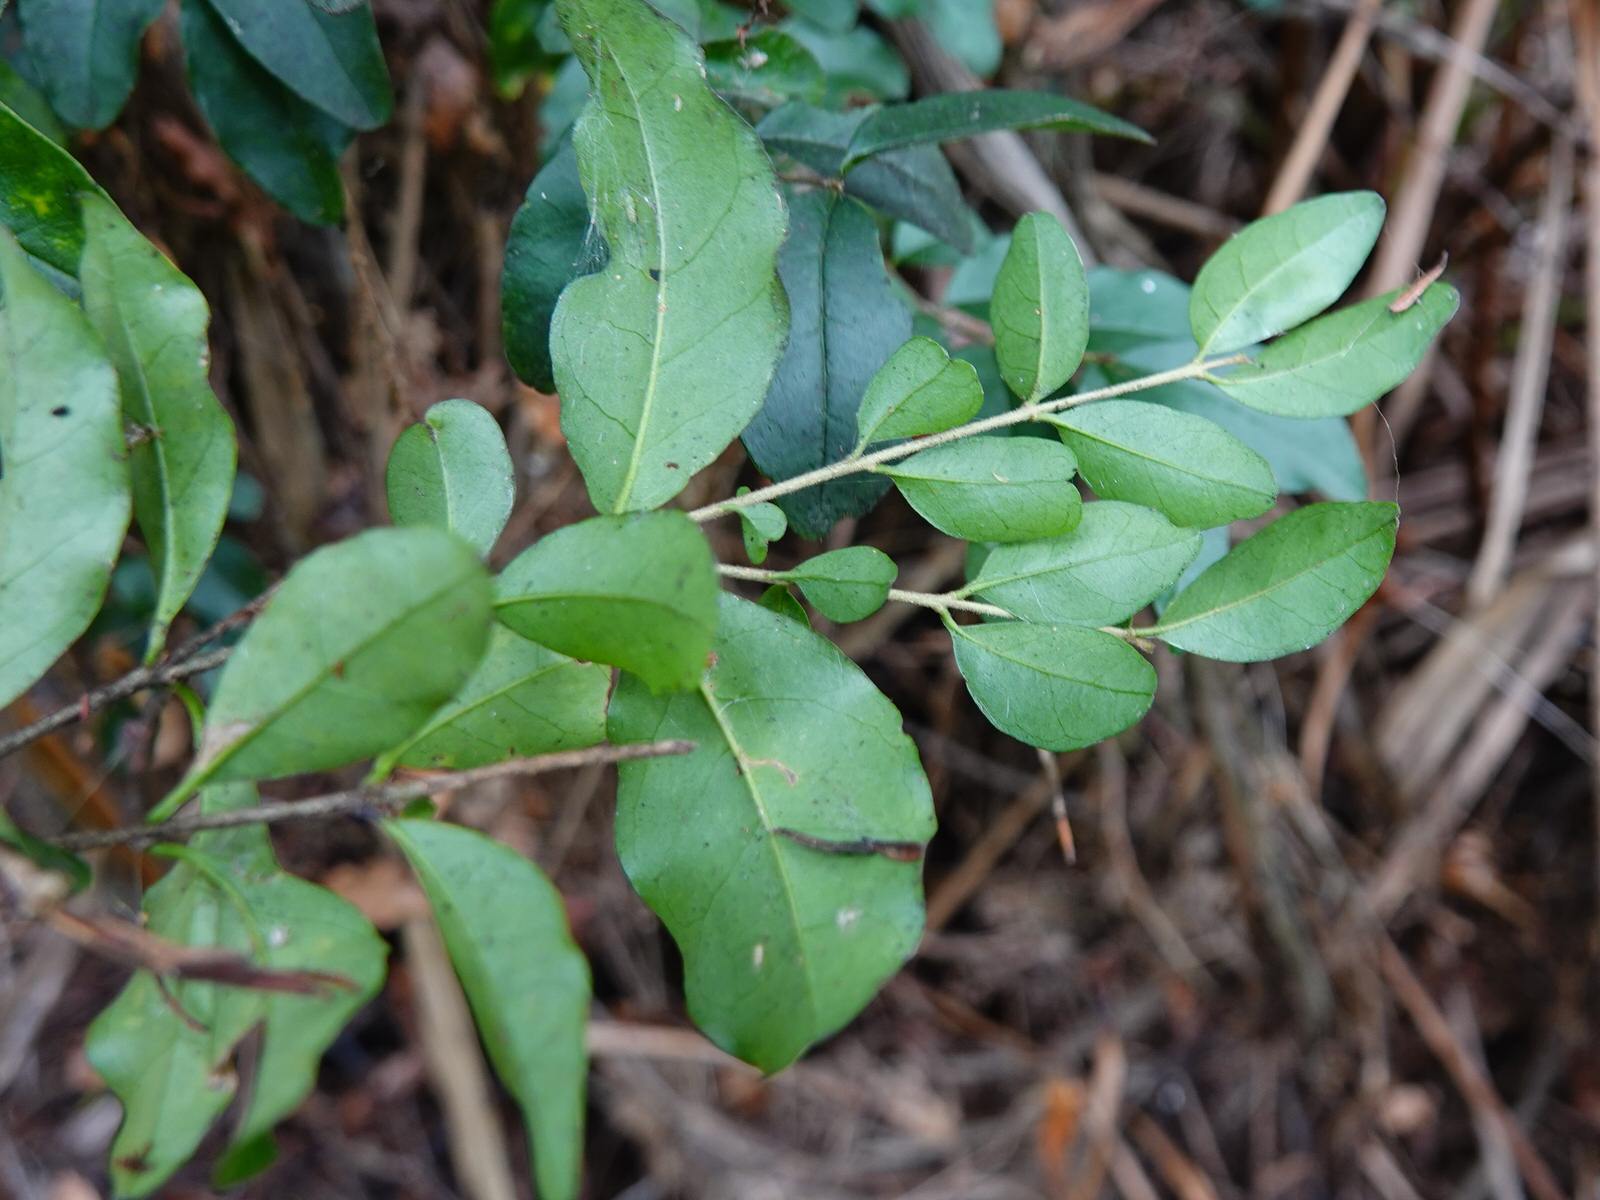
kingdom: Plantae
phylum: Tracheophyta
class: Magnoliopsida
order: Lamiales
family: Oleaceae
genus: Ligustrum
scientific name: Ligustrum sinense
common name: Chinese privet
